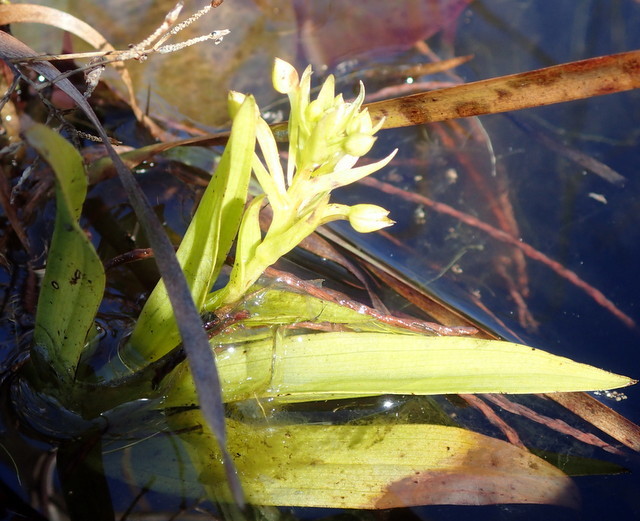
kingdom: Plantae
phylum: Tracheophyta
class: Liliopsida
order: Asparagales
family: Orchidaceae
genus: Habenaria
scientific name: Habenaria repens
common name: Water orchid
